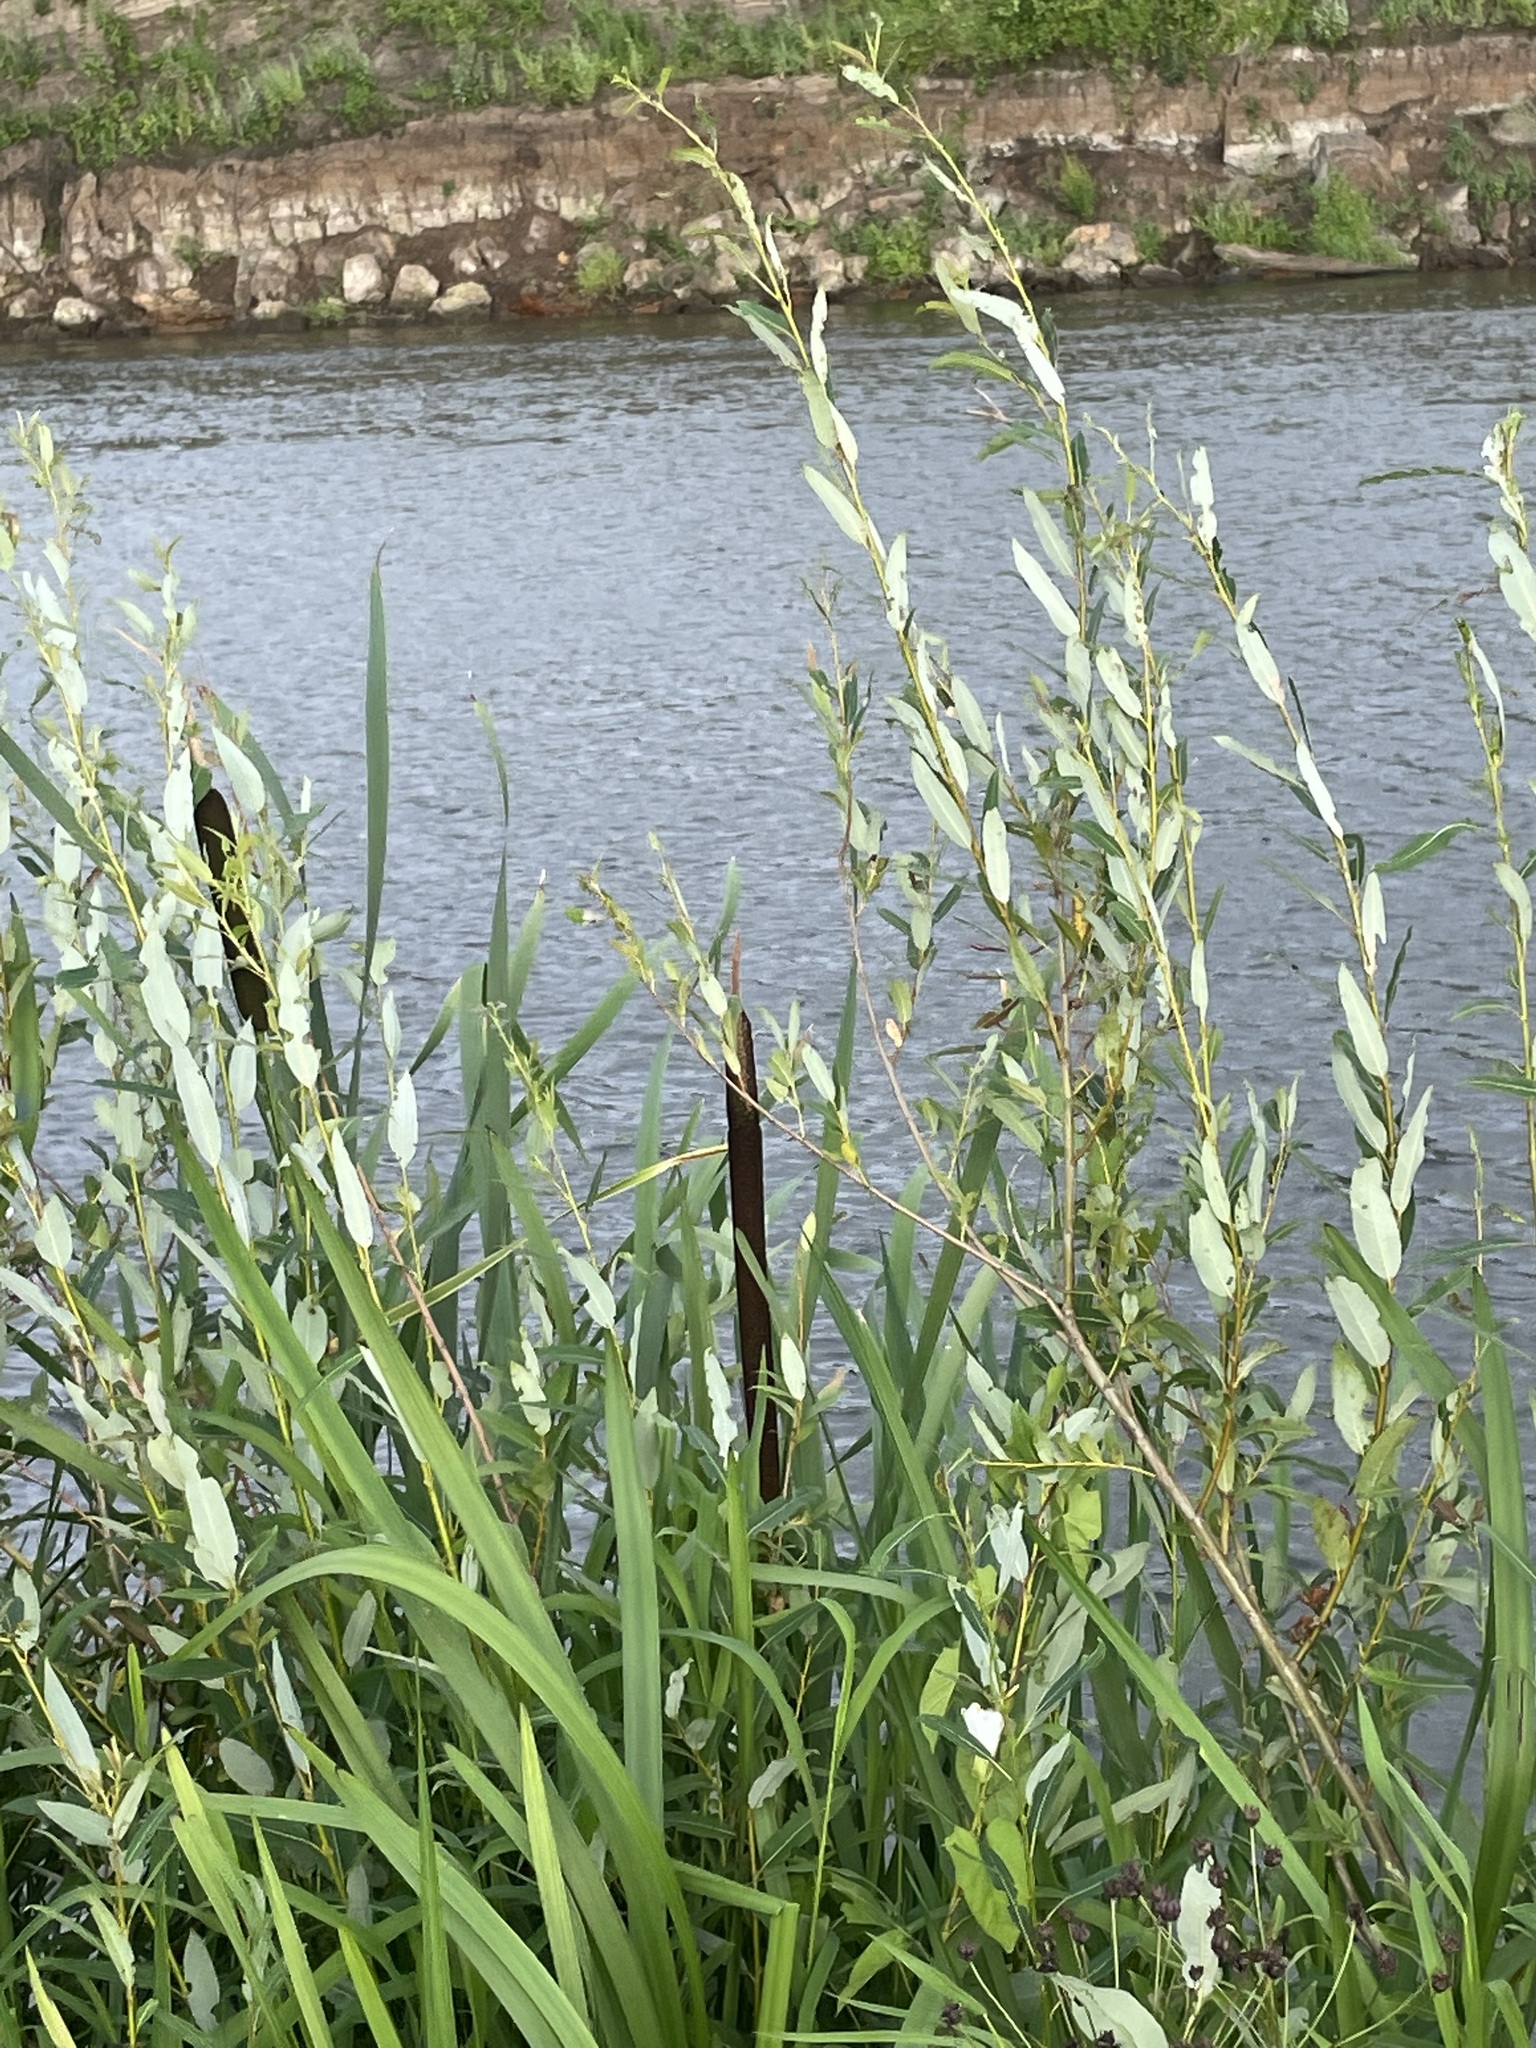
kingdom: Plantae
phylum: Tracheophyta
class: Magnoliopsida
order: Malpighiales
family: Salicaceae
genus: Salix
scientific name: Salix triandra
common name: Almond willow
